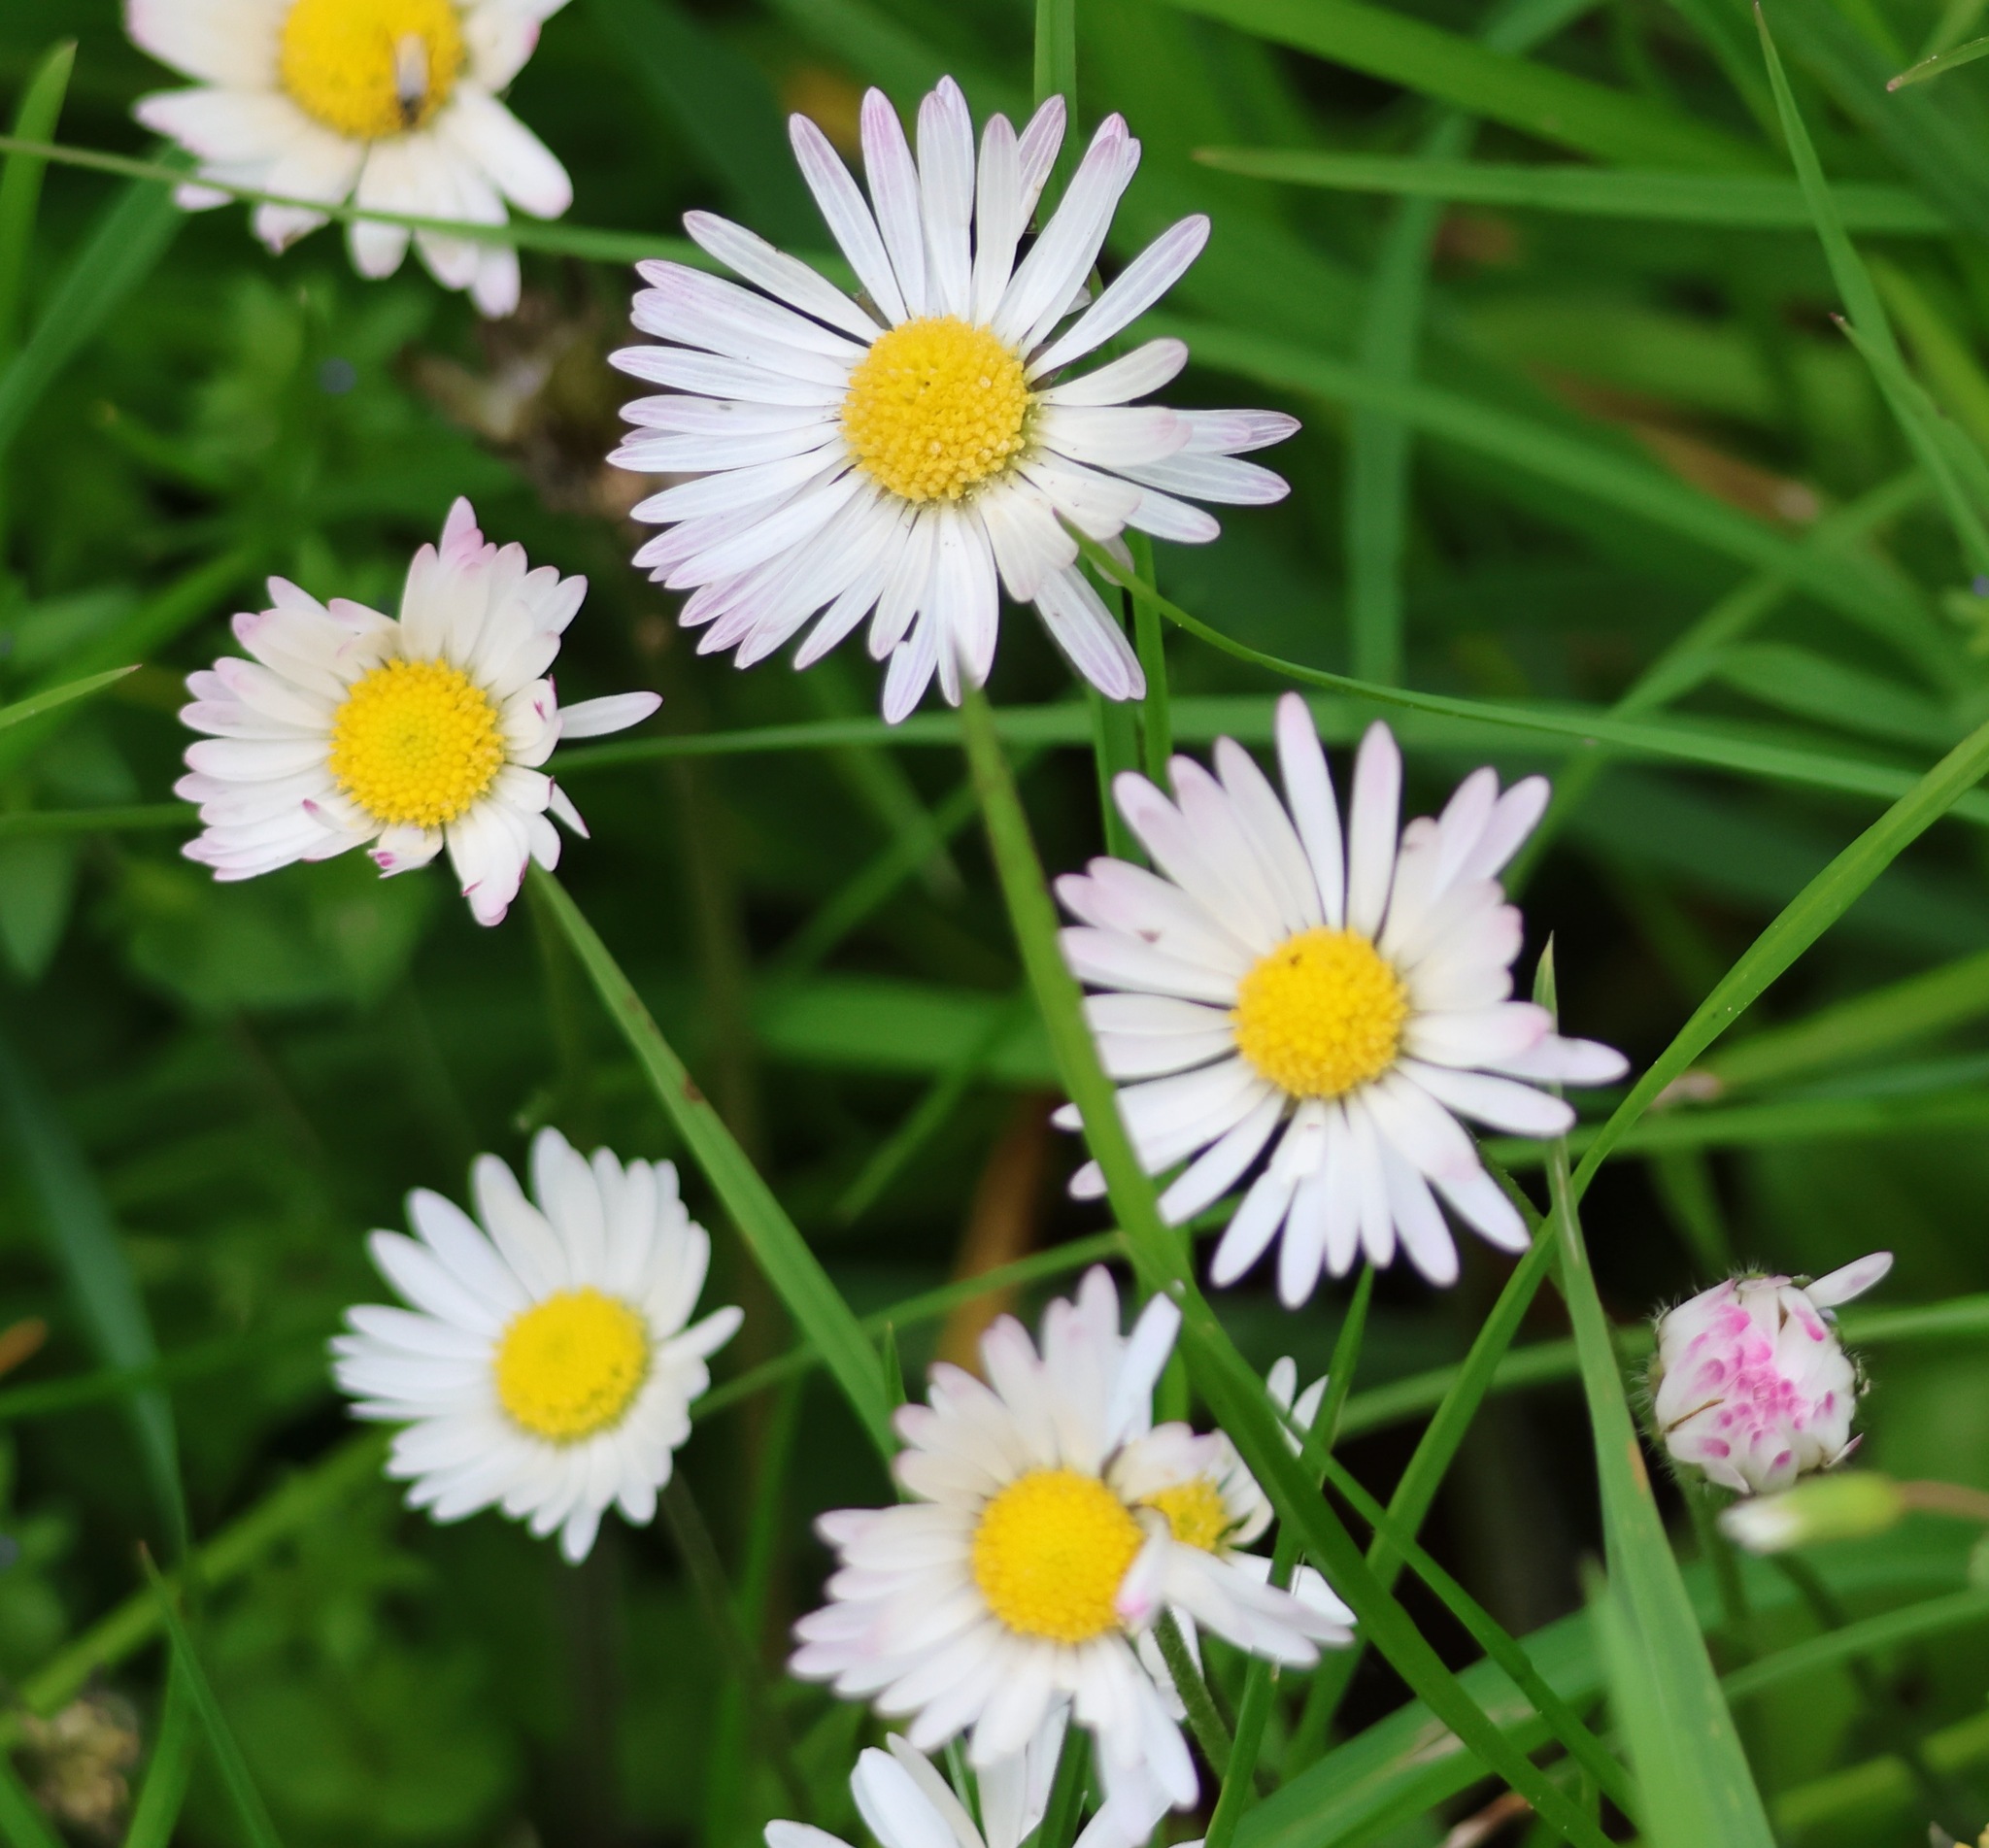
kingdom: Plantae
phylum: Tracheophyta
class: Magnoliopsida
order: Asterales
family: Asteraceae
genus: Bellis
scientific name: Bellis perennis
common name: Lawndaisy
